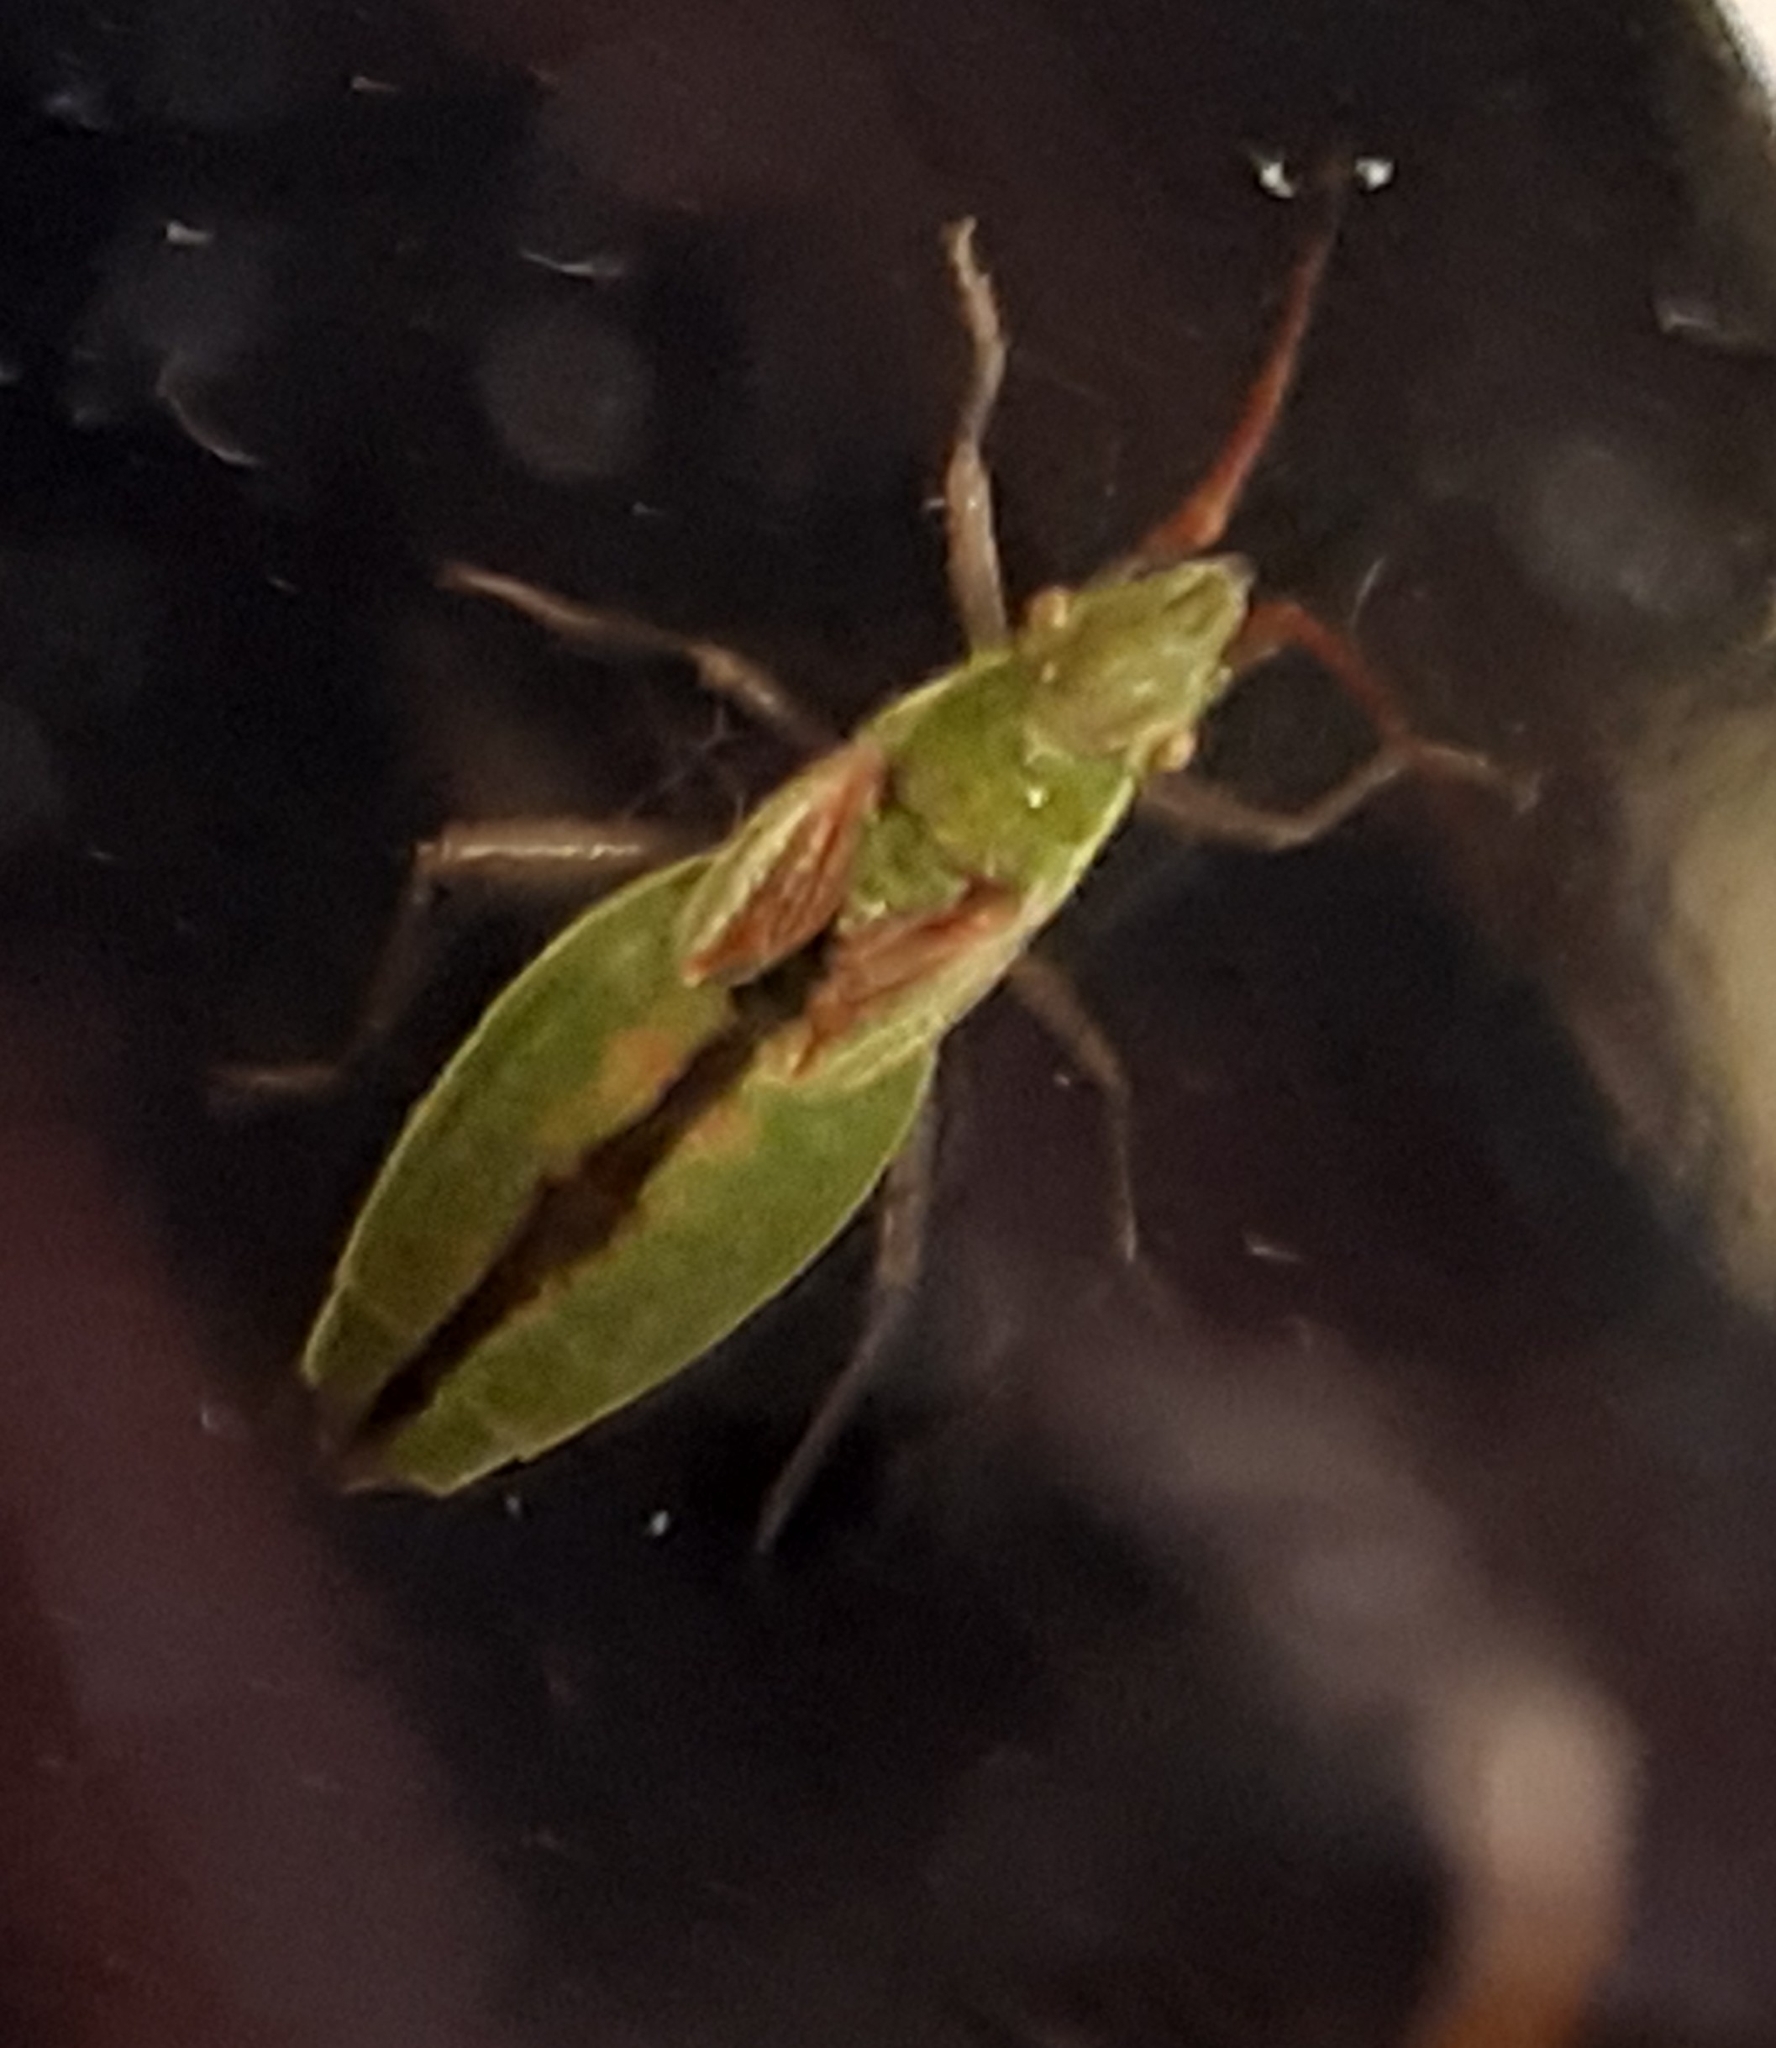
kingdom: Animalia
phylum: Arthropoda
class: Insecta
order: Hemiptera
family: Rhopalidae
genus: Myrmus
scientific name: Myrmus miriformis
